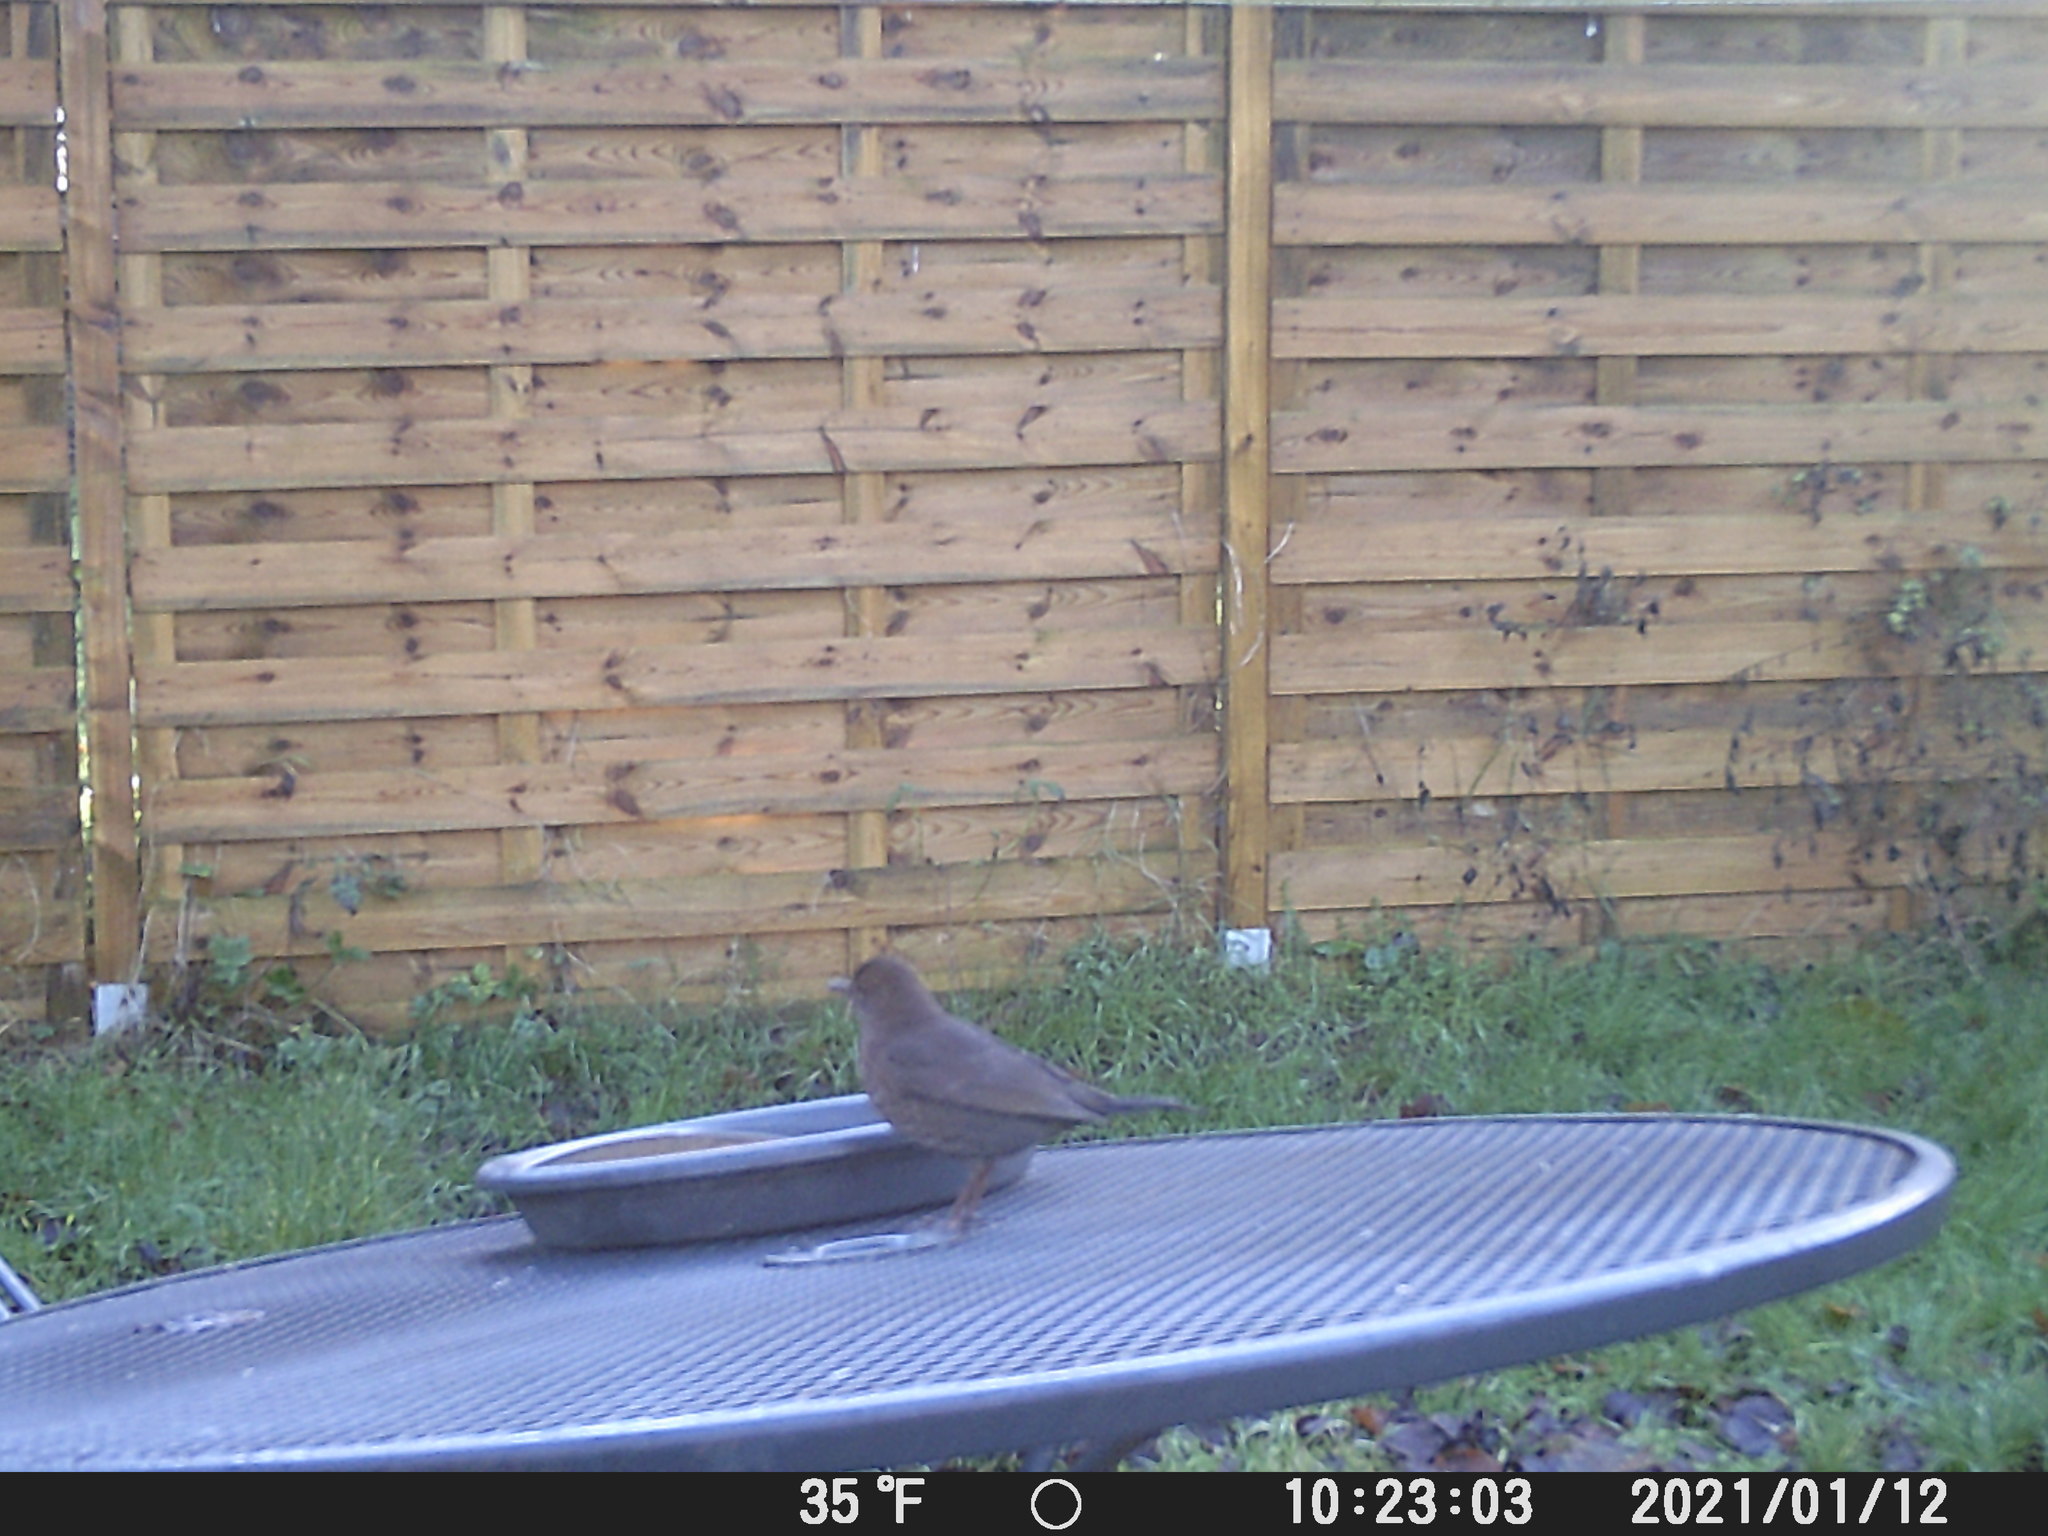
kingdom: Animalia
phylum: Chordata
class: Aves
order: Passeriformes
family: Turdidae
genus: Turdus
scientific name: Turdus merula
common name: Common blackbird
